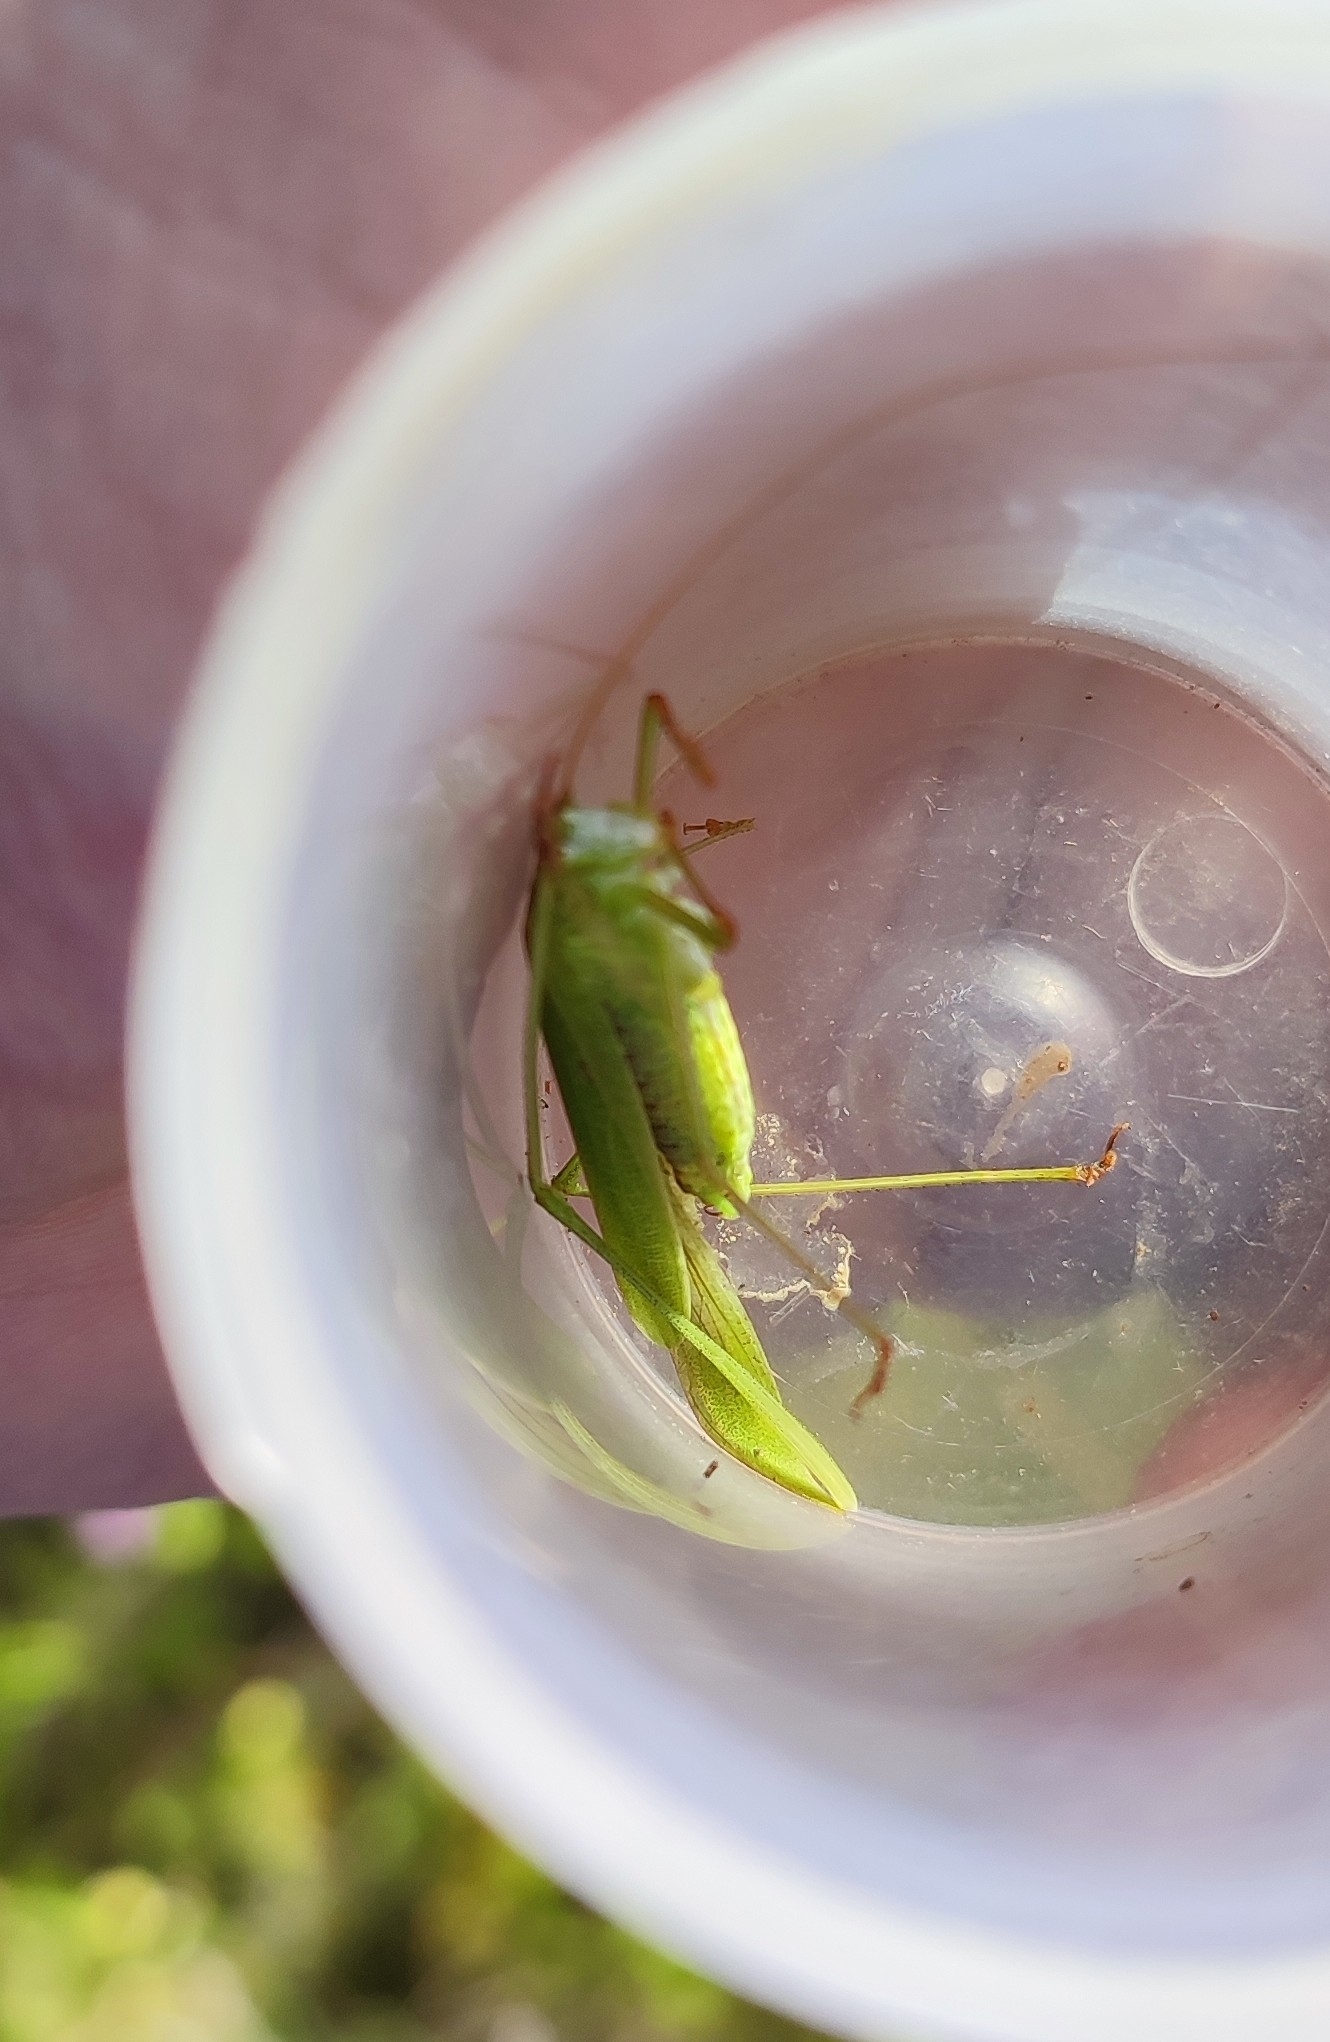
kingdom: Animalia
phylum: Arthropoda
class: Insecta
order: Orthoptera
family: Tettigoniidae
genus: Phaneroptera
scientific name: Phaneroptera falcata
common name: Sickle-bearing bush-cricket
